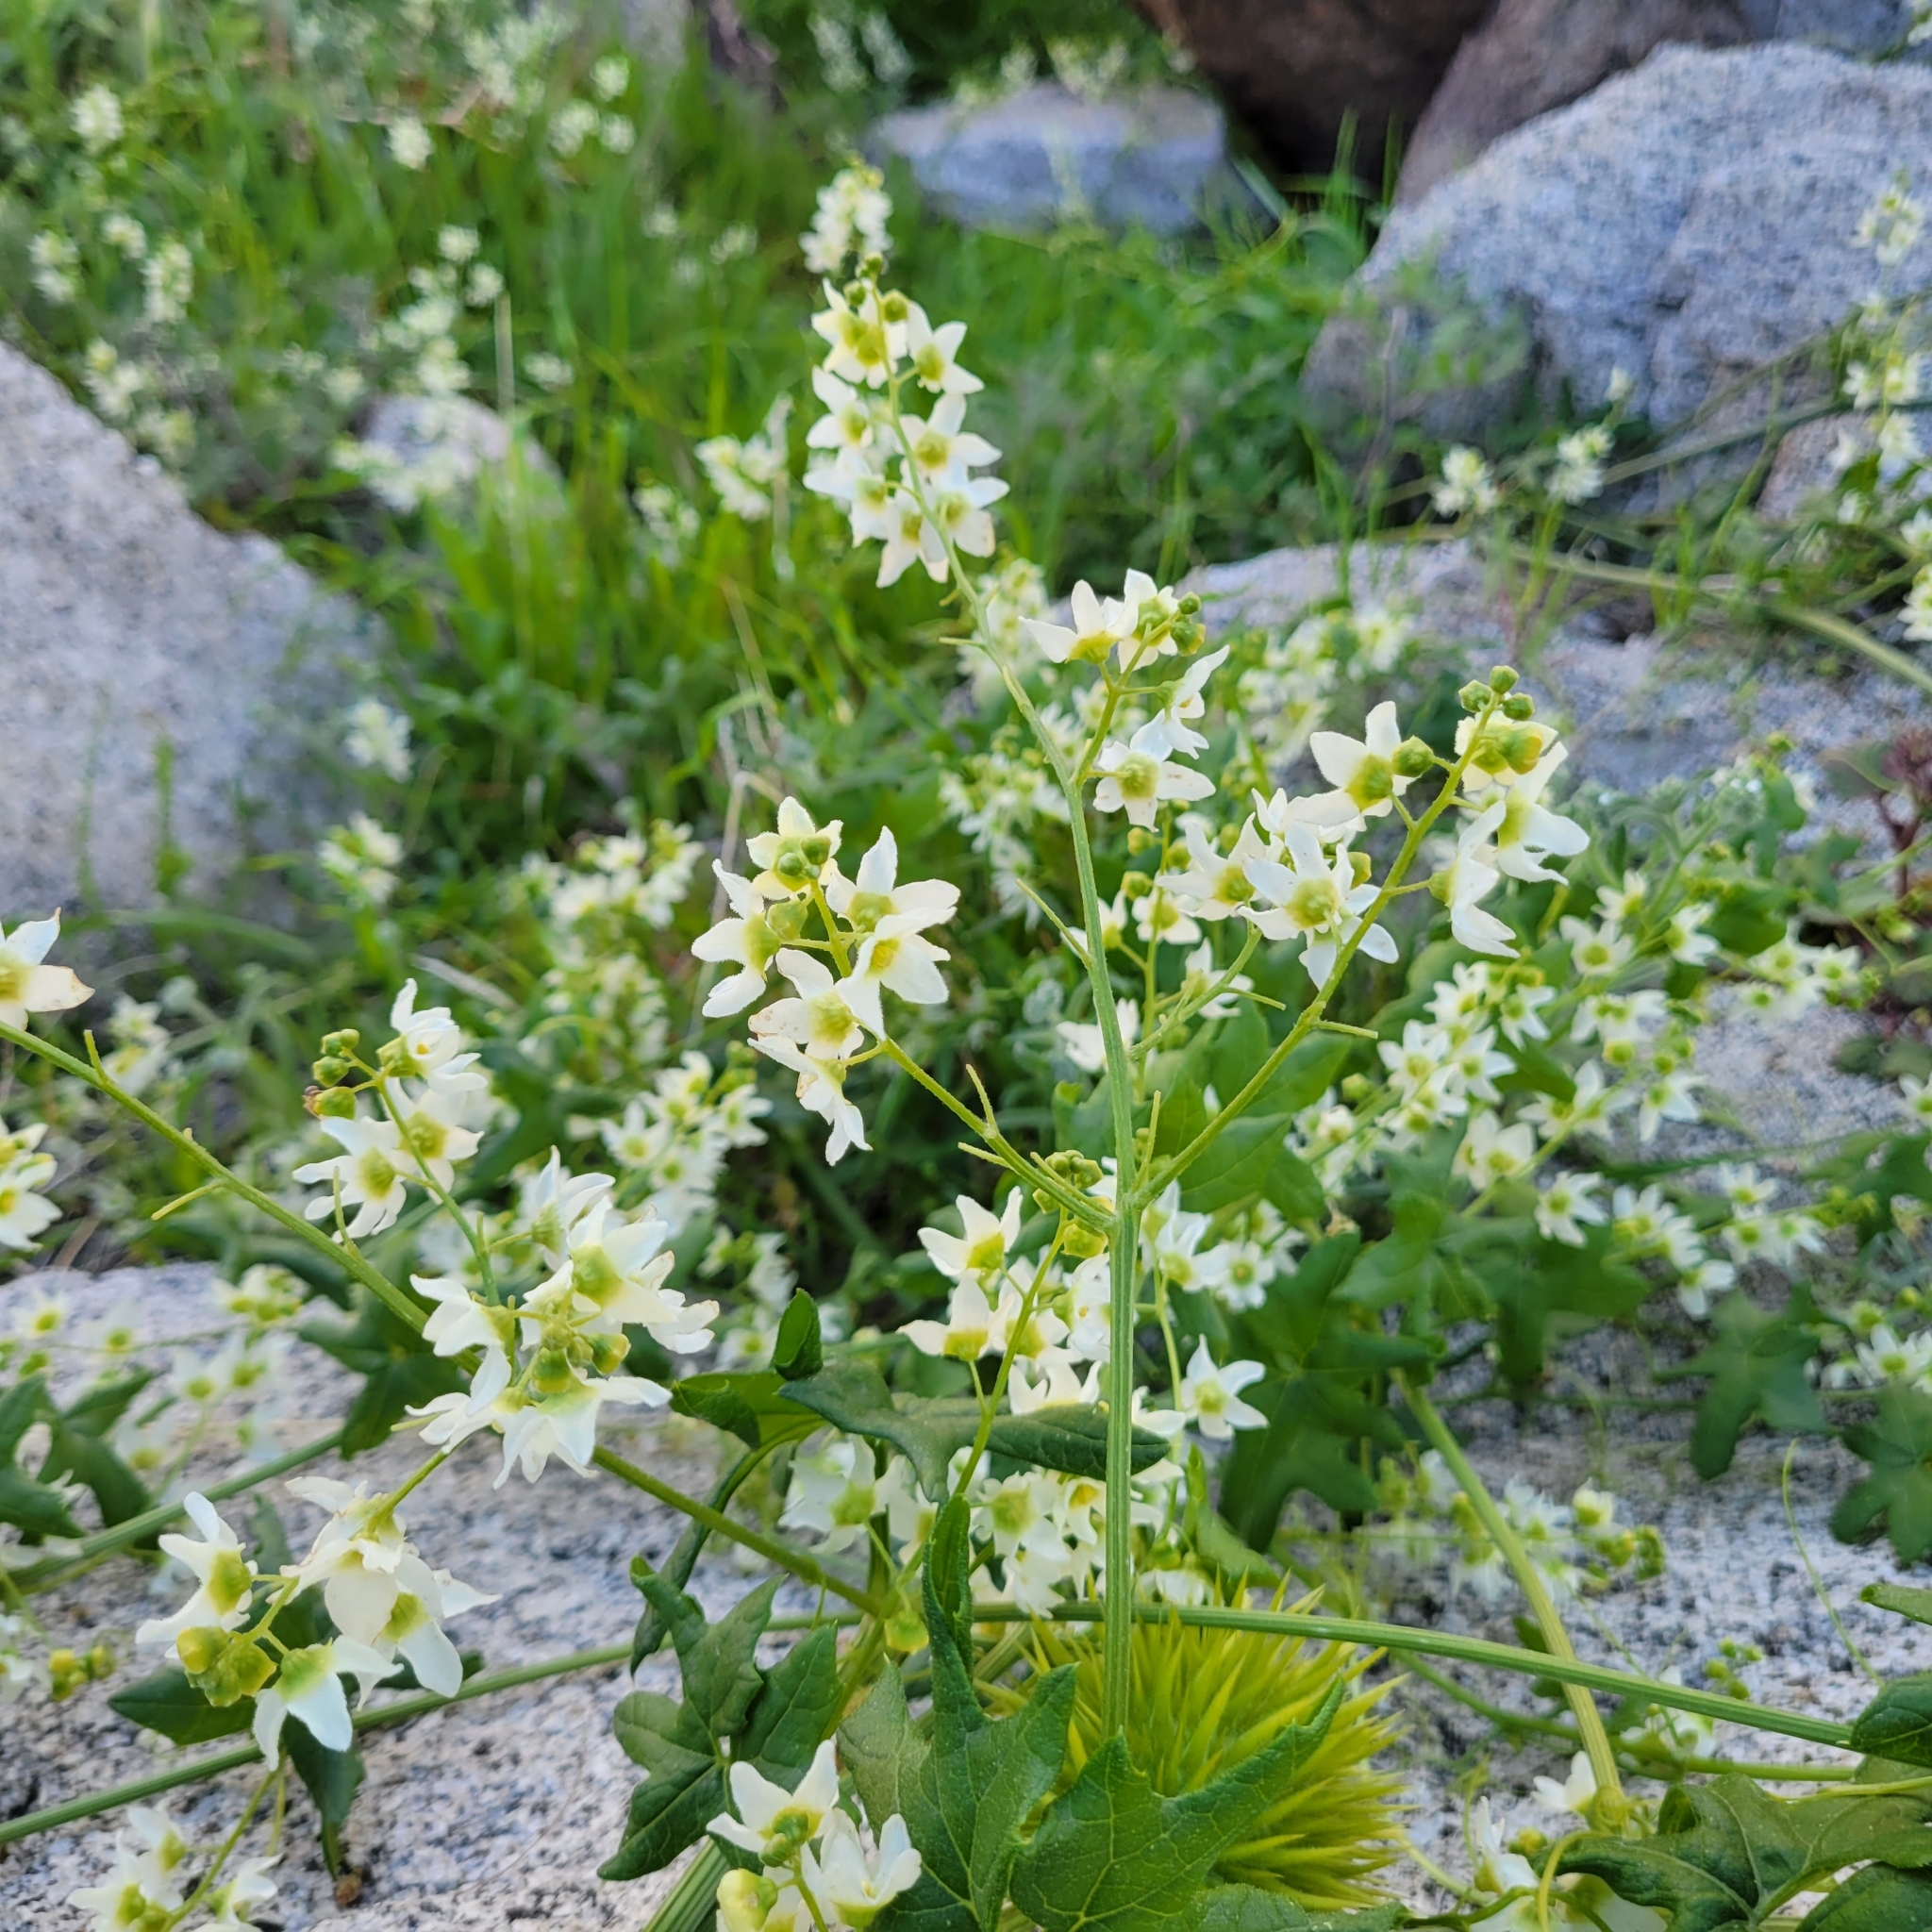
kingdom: Plantae
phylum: Tracheophyta
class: Magnoliopsida
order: Cucurbitales
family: Cucurbitaceae
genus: Marah
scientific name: Marah macrocarpa
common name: Cucamonga manroot
